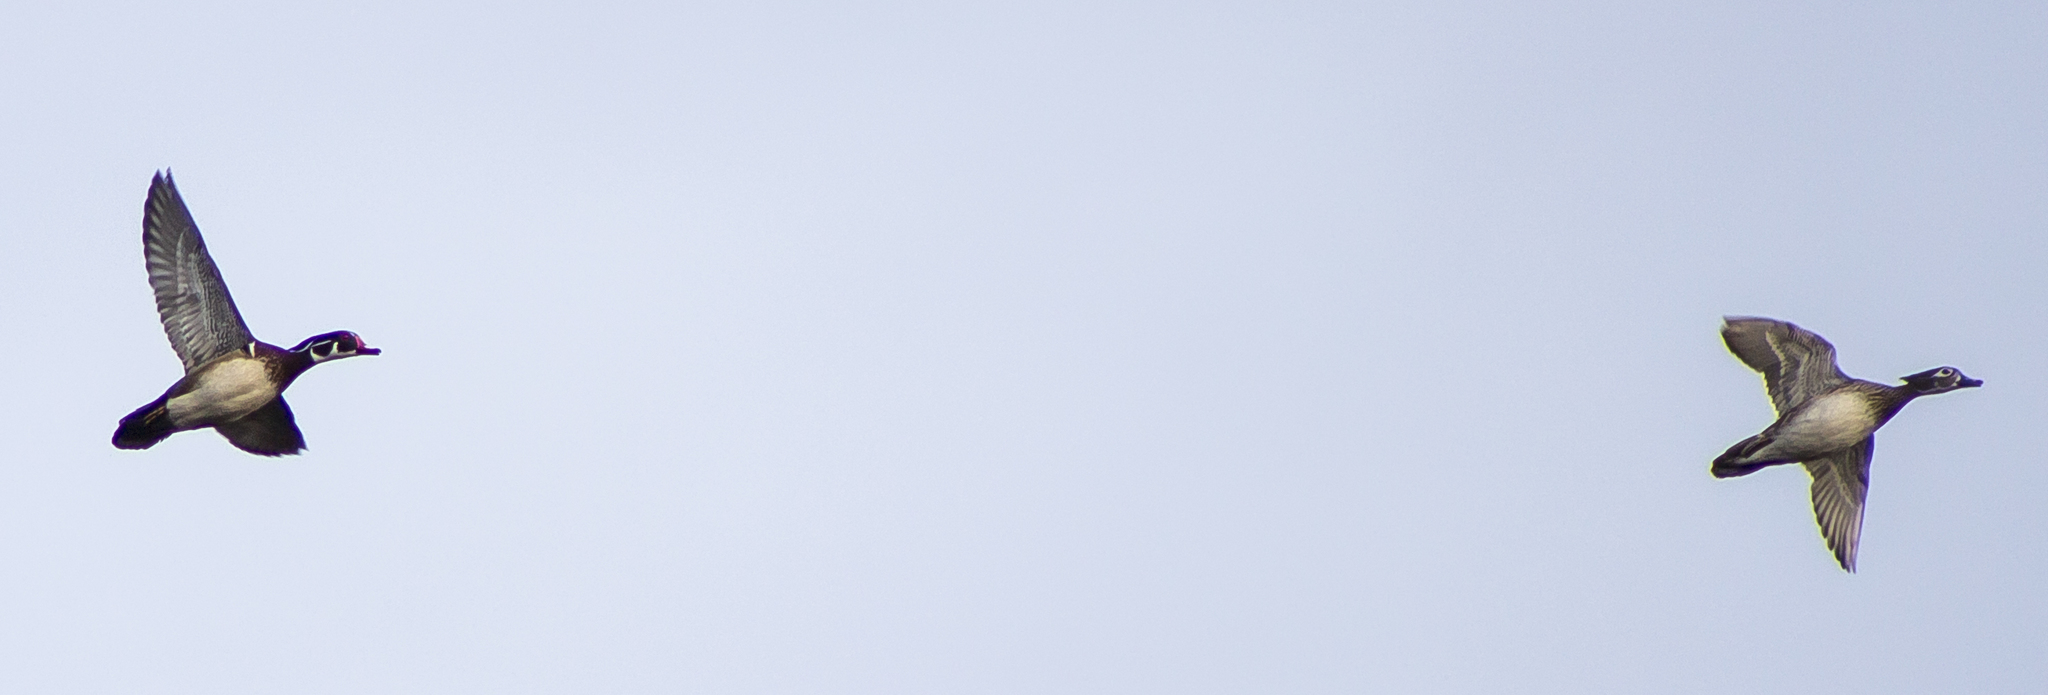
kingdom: Animalia
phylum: Chordata
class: Aves
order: Anseriformes
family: Anatidae
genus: Aix
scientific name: Aix sponsa
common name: Wood duck
